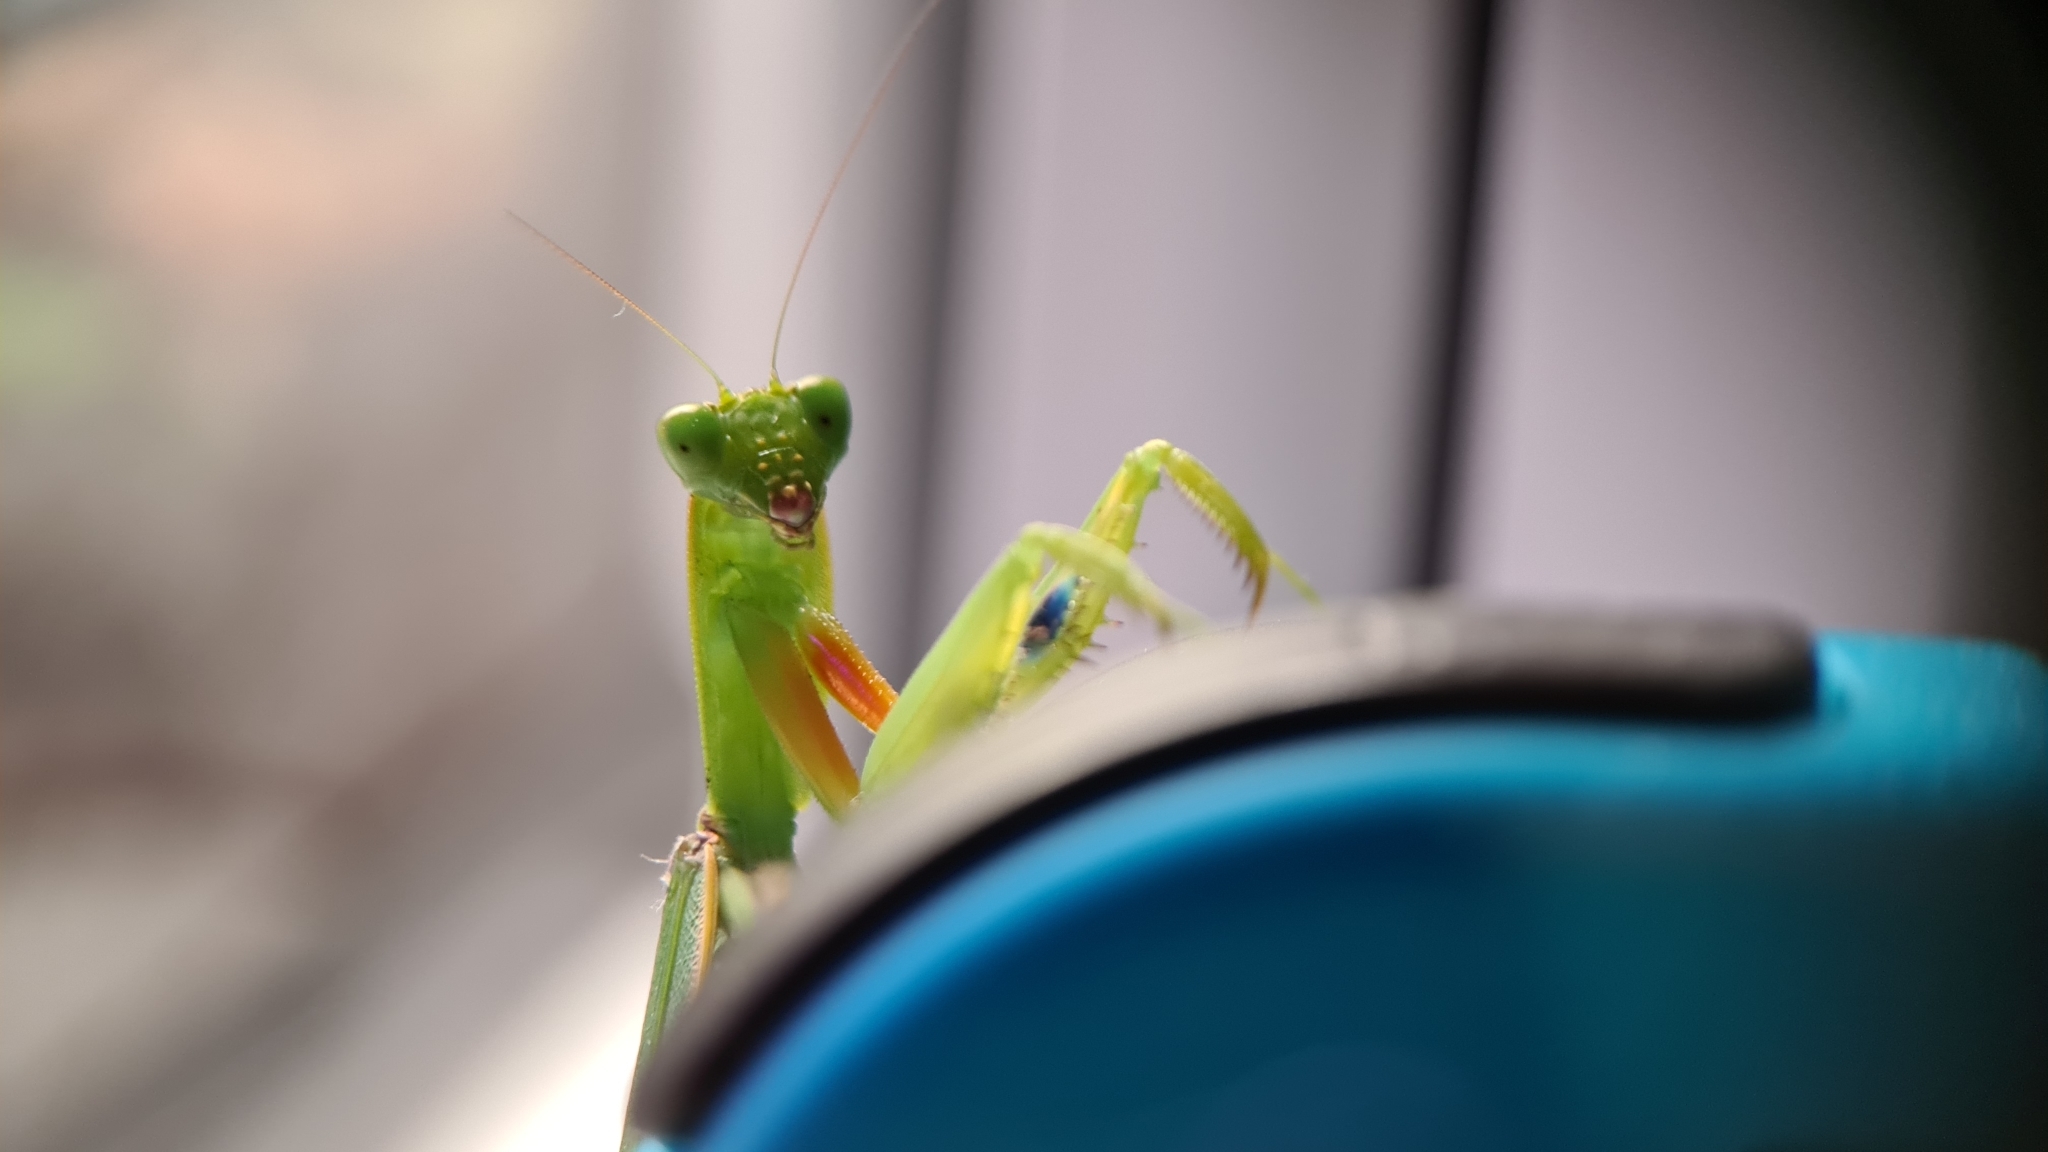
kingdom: Animalia
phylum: Arthropoda
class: Insecta
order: Mantodea
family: Mantidae
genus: Orthodera
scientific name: Orthodera ministralis
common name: Mantis
